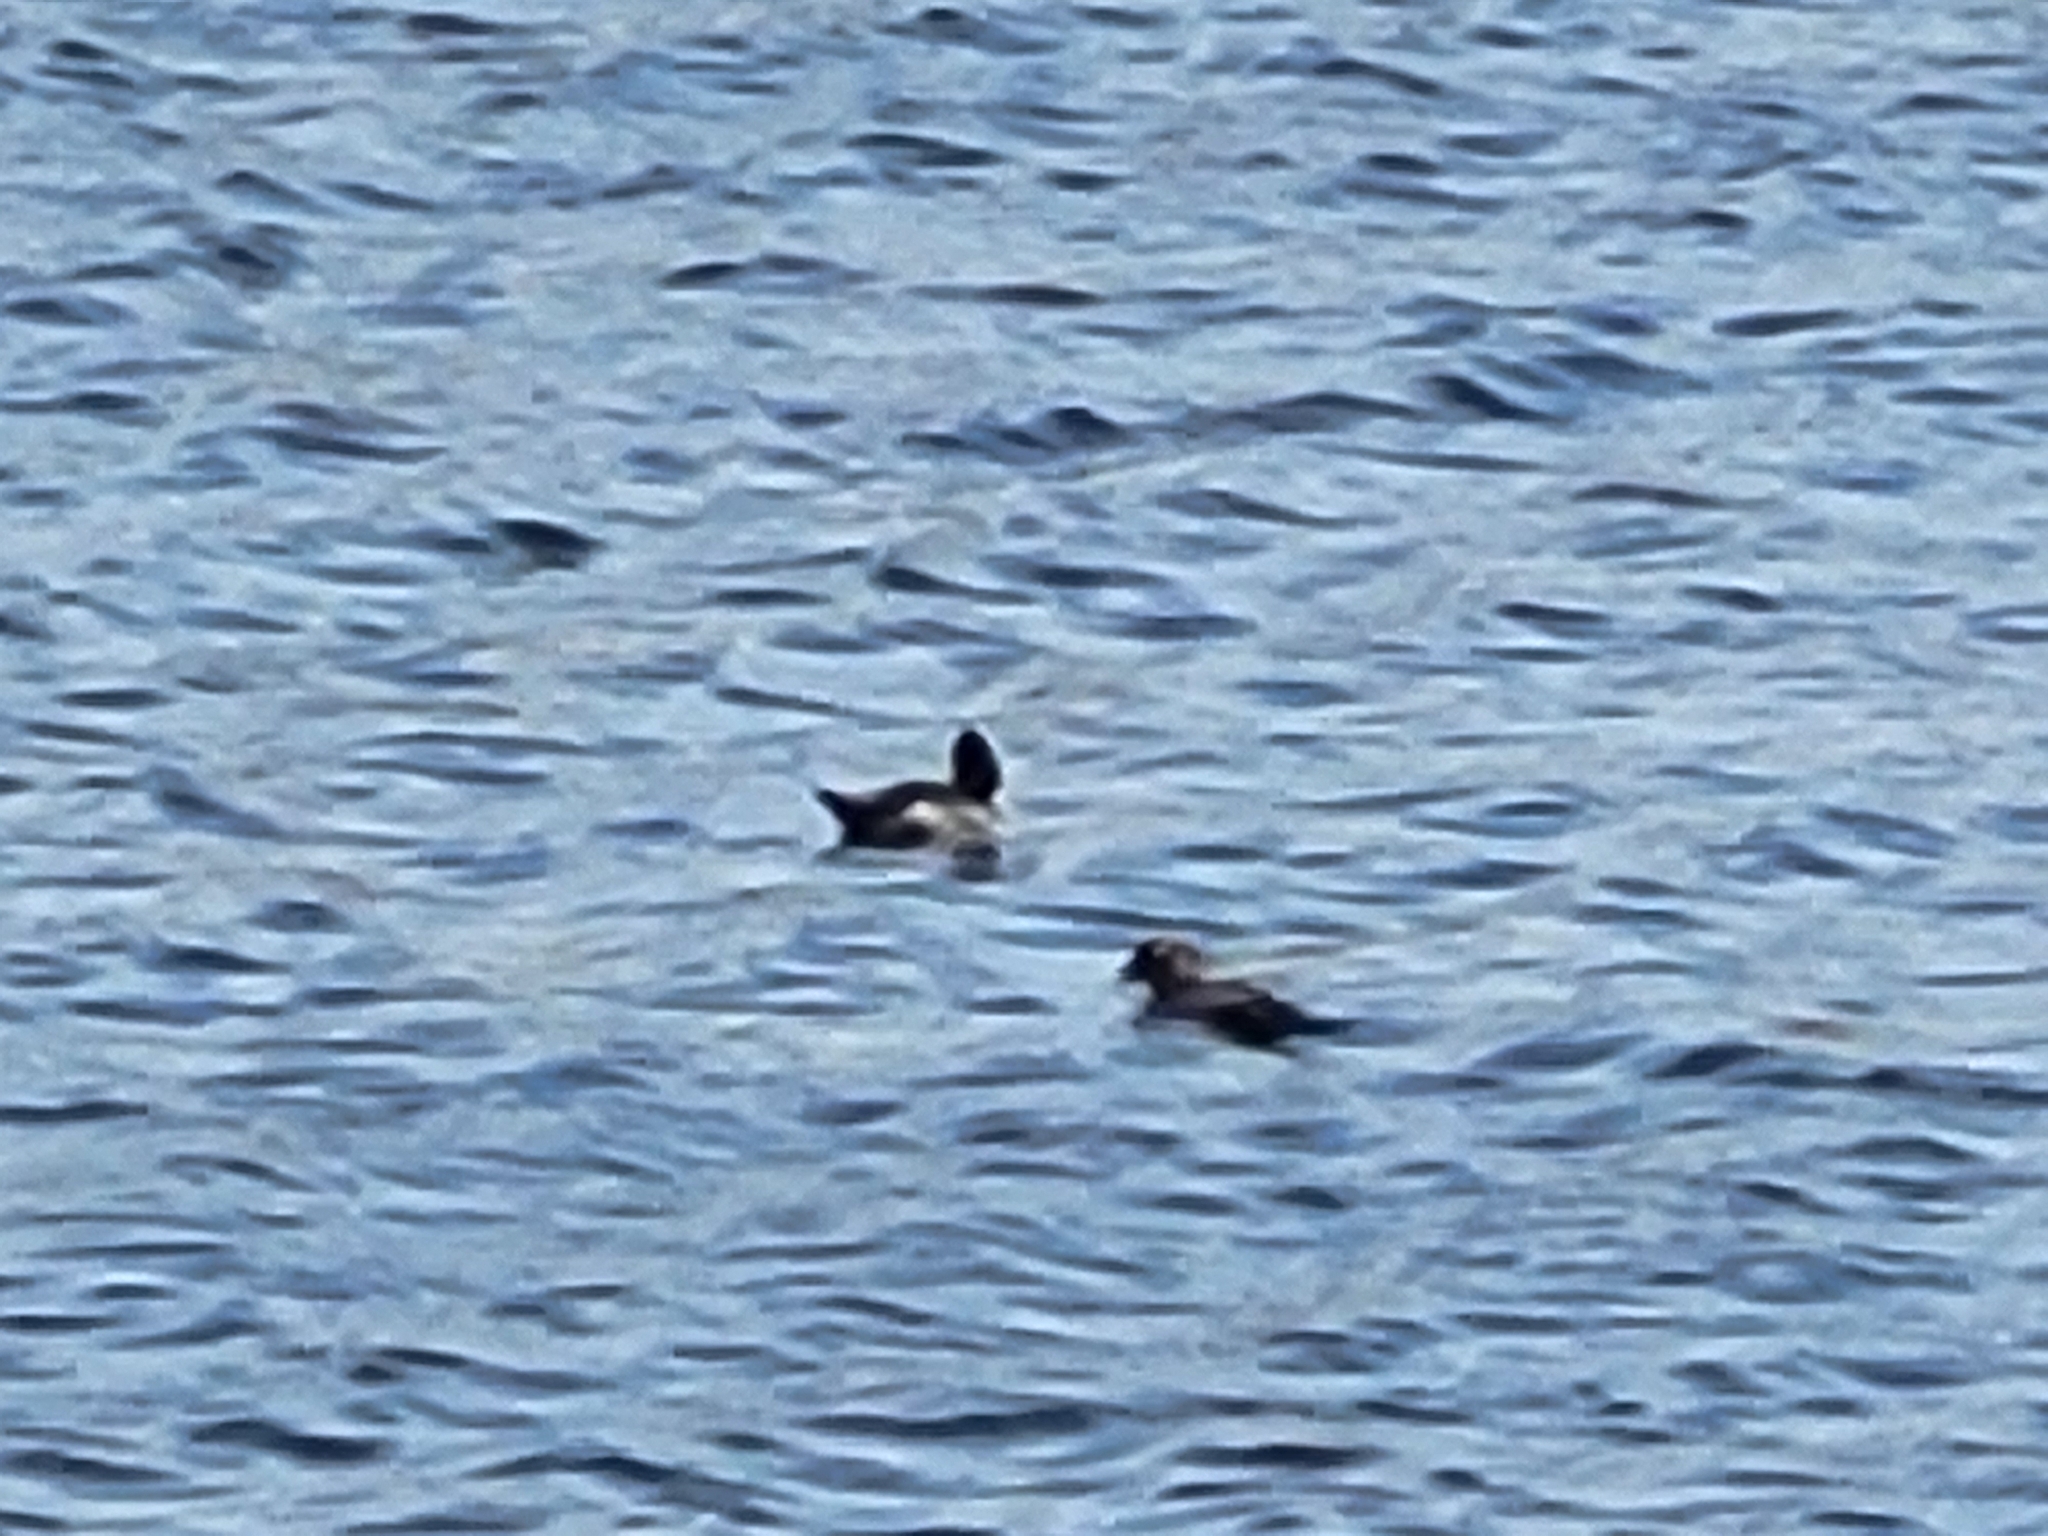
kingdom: Animalia
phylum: Chordata
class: Aves
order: Anseriformes
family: Anatidae
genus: Bucephala
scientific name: Bucephala clangula
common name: Common goldeneye
